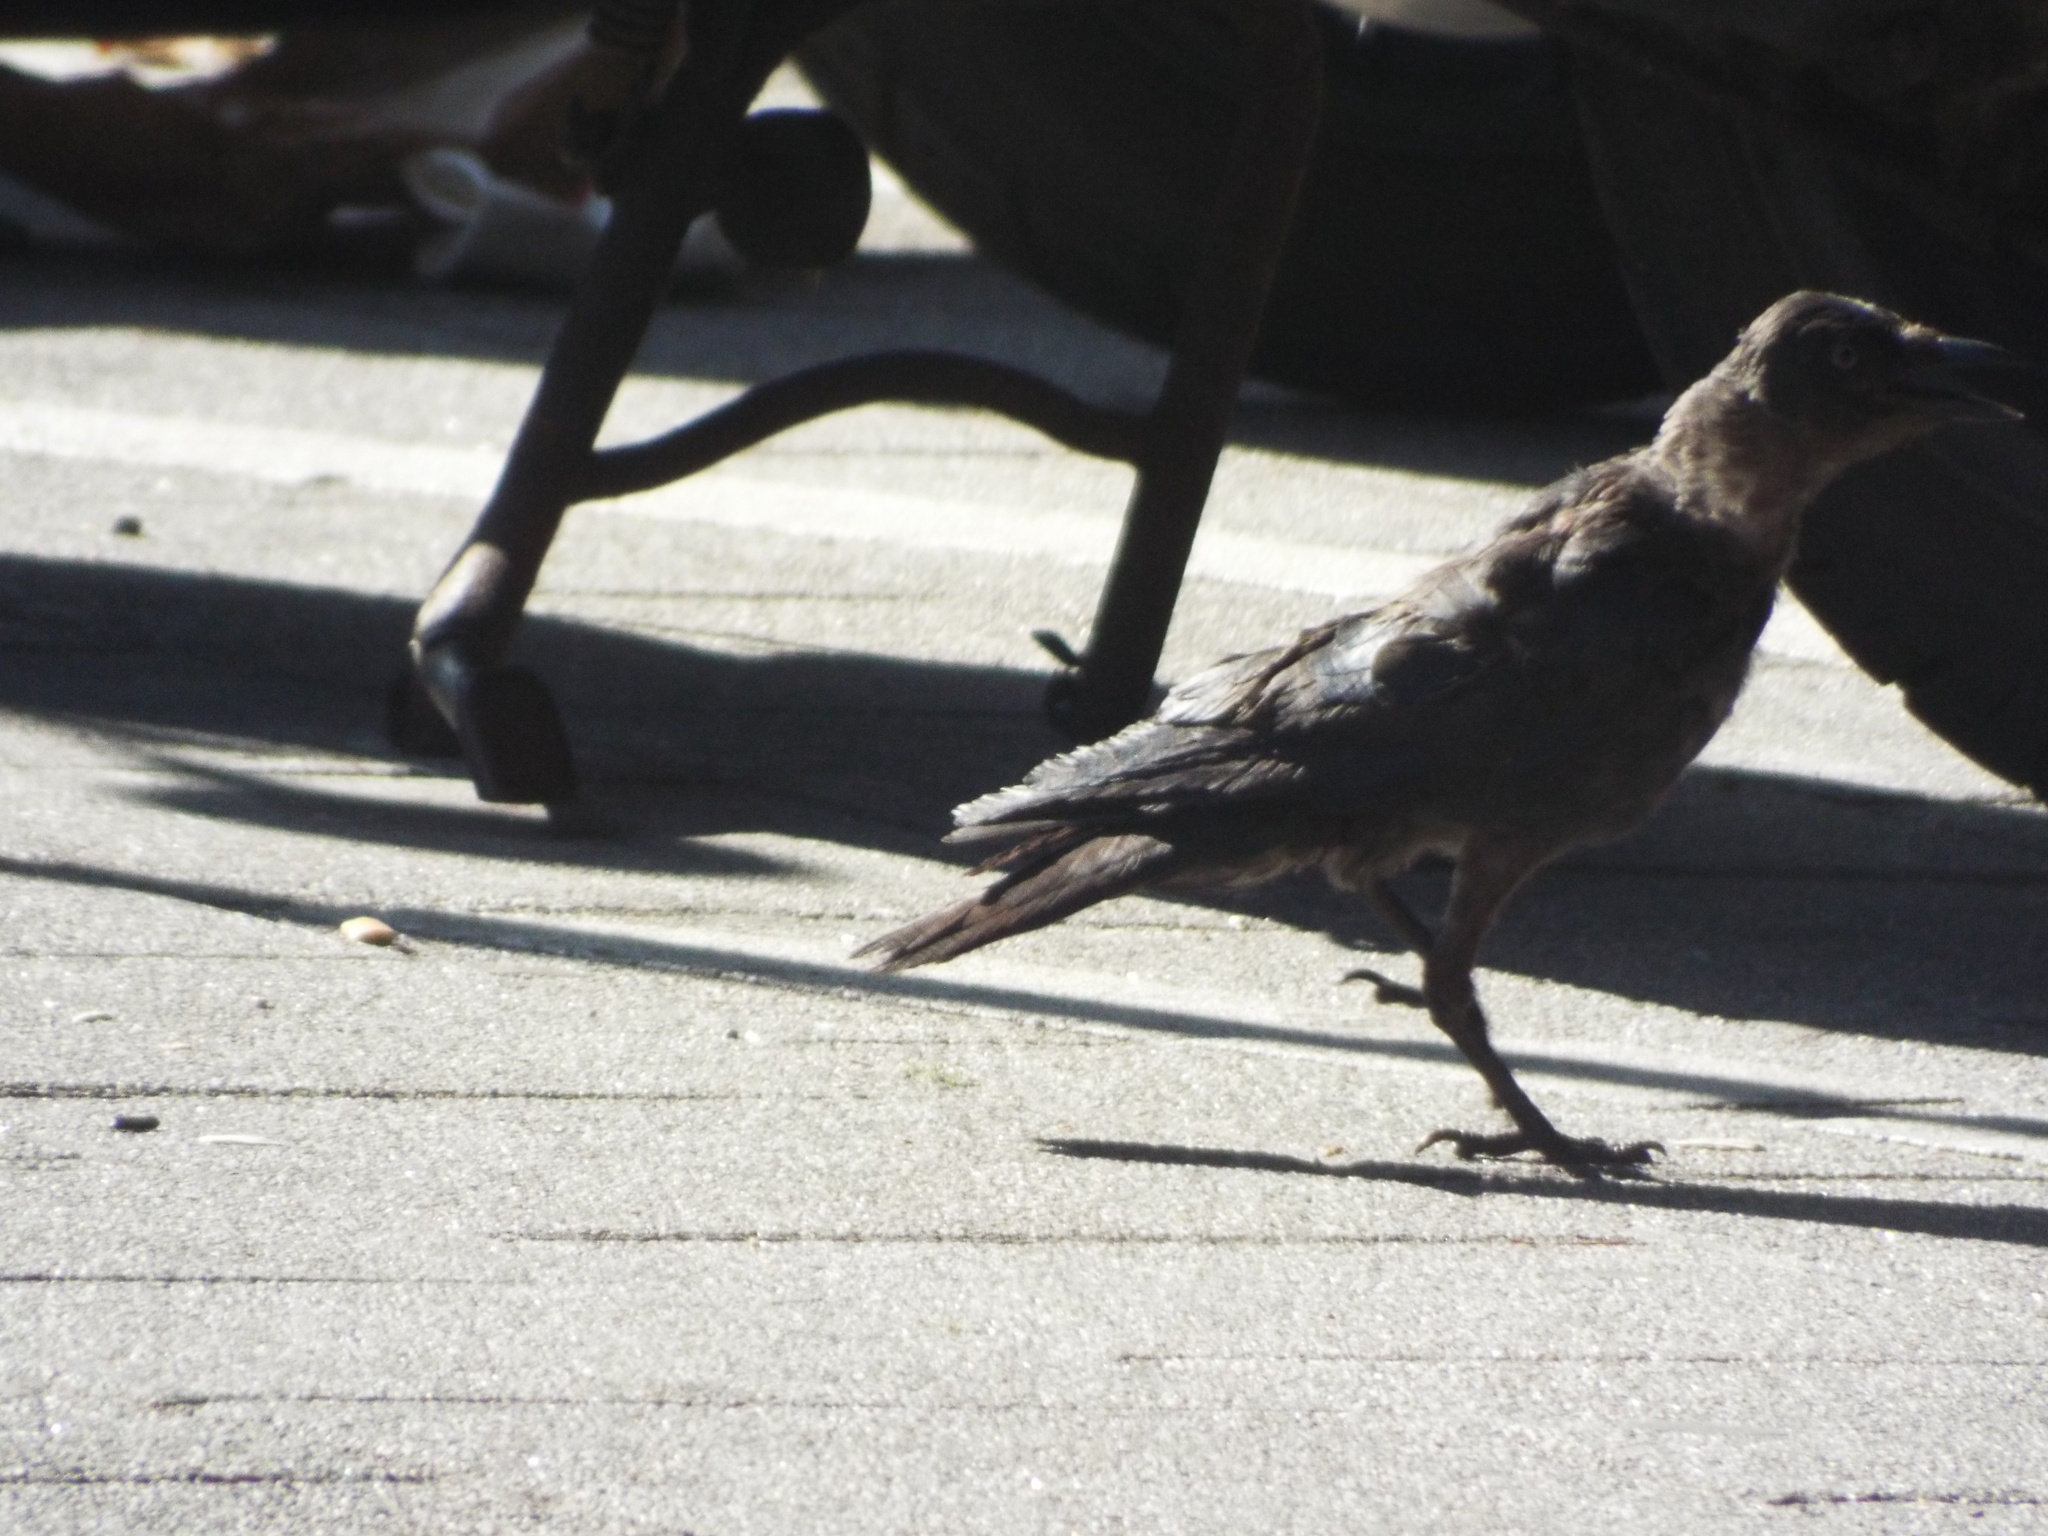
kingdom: Animalia
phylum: Chordata
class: Aves
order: Passeriformes
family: Corvidae
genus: Coloeus
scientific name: Coloeus monedula
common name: Western jackdaw
